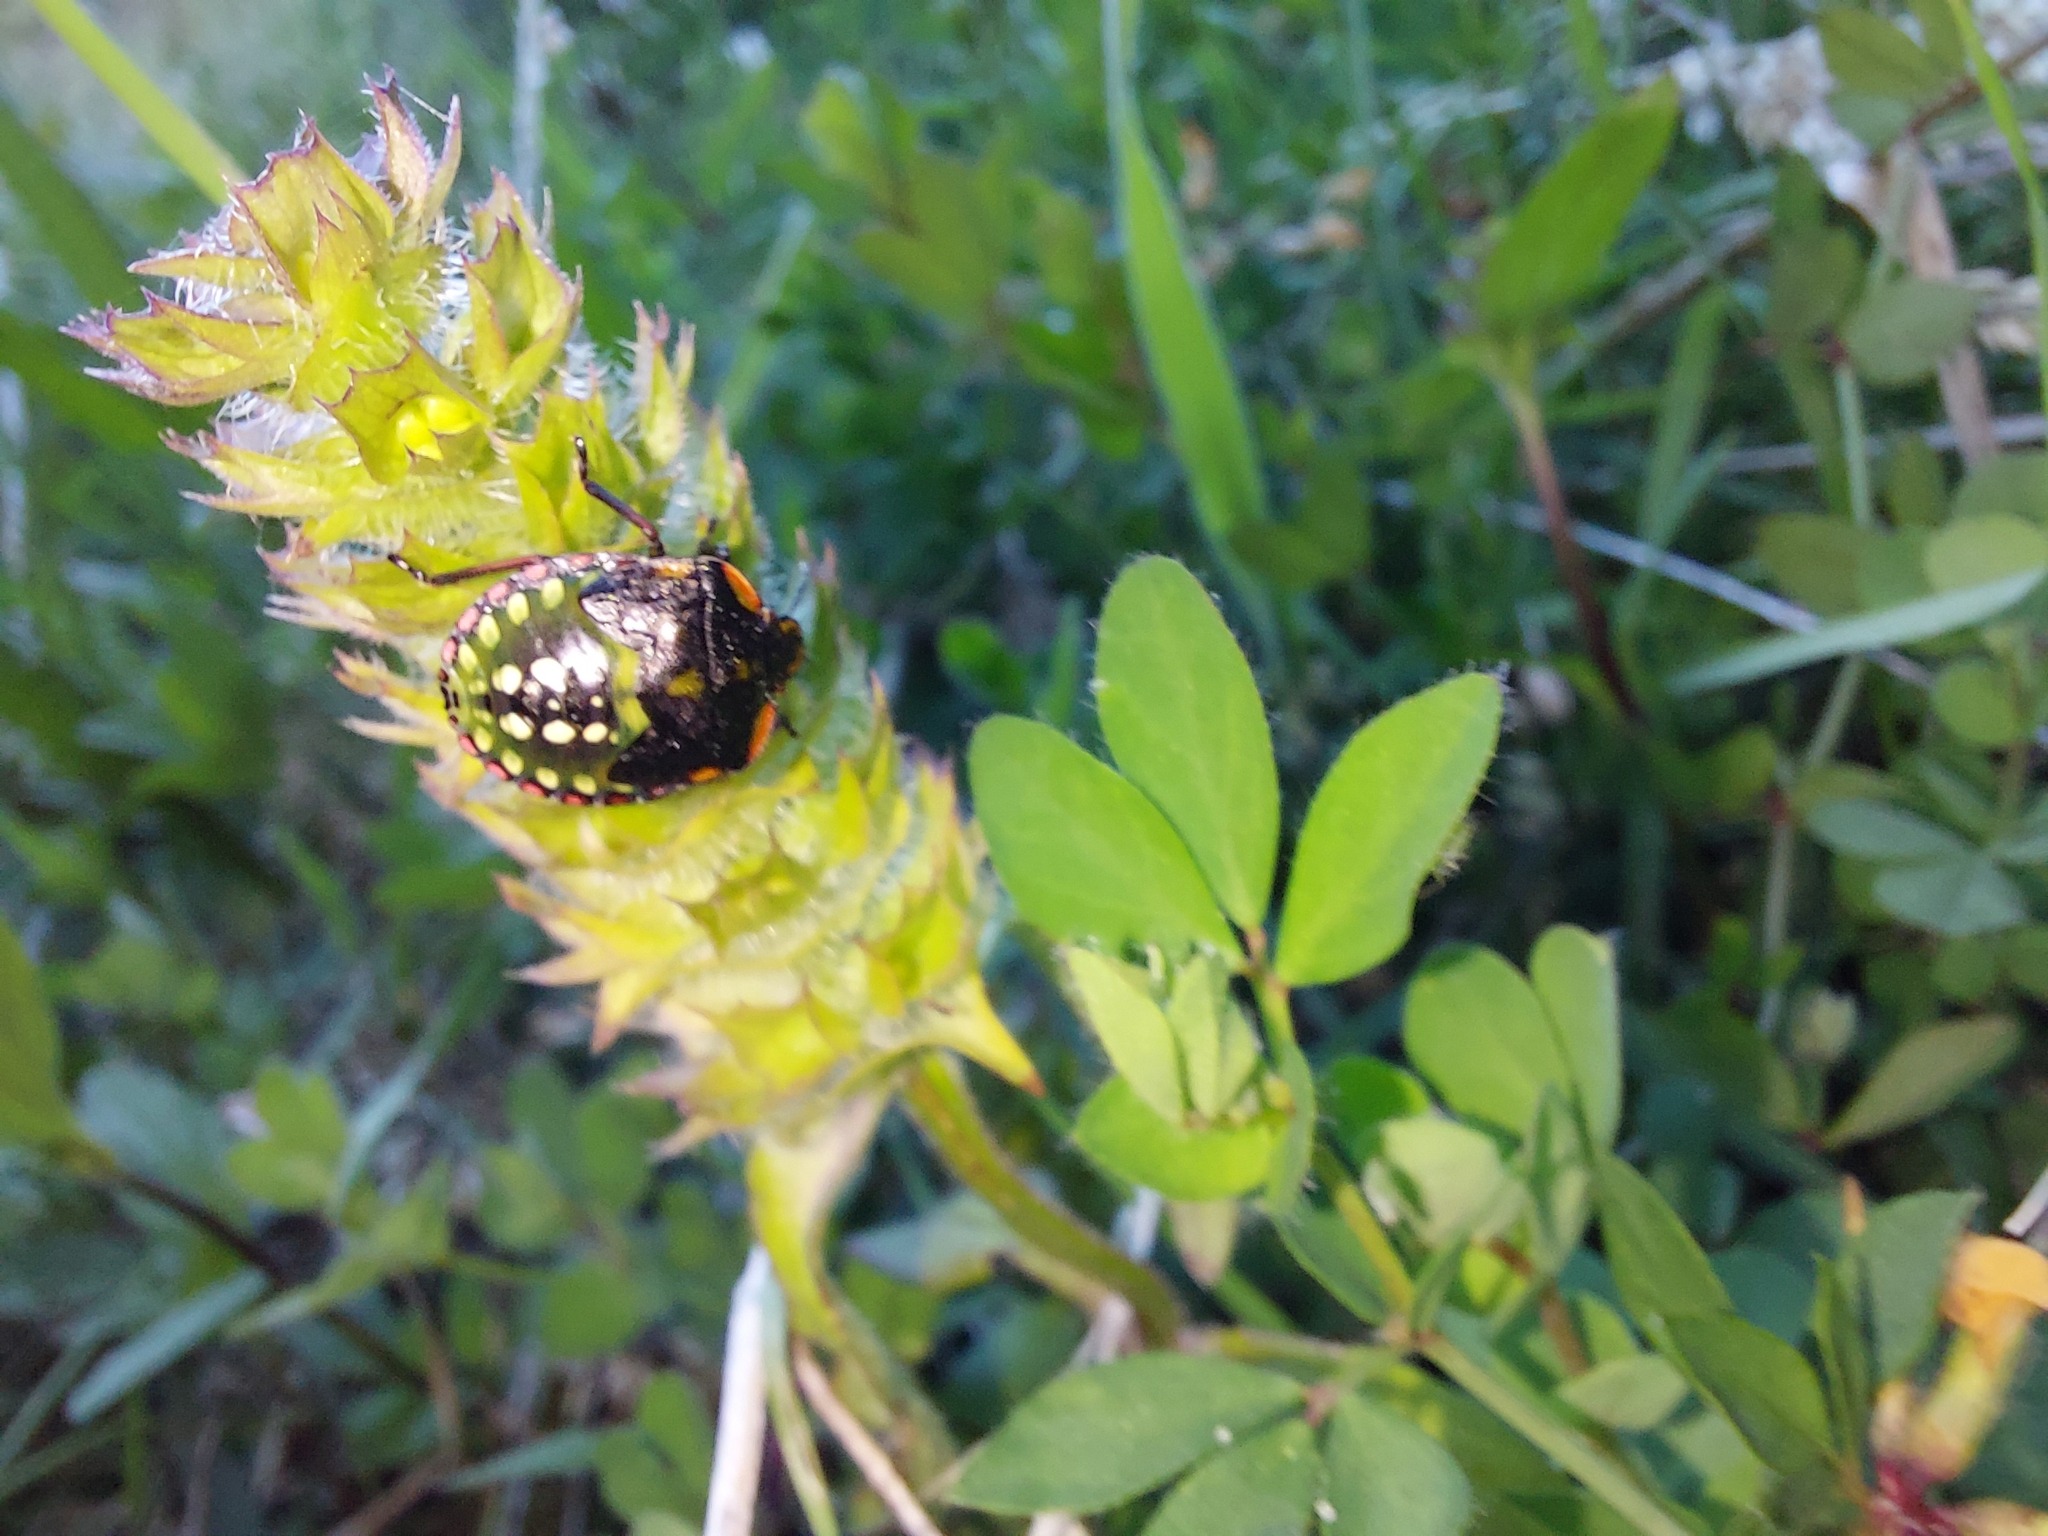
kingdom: Animalia
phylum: Arthropoda
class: Insecta
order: Hemiptera
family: Pentatomidae
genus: Nezara
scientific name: Nezara viridula
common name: Southern green stink bug
